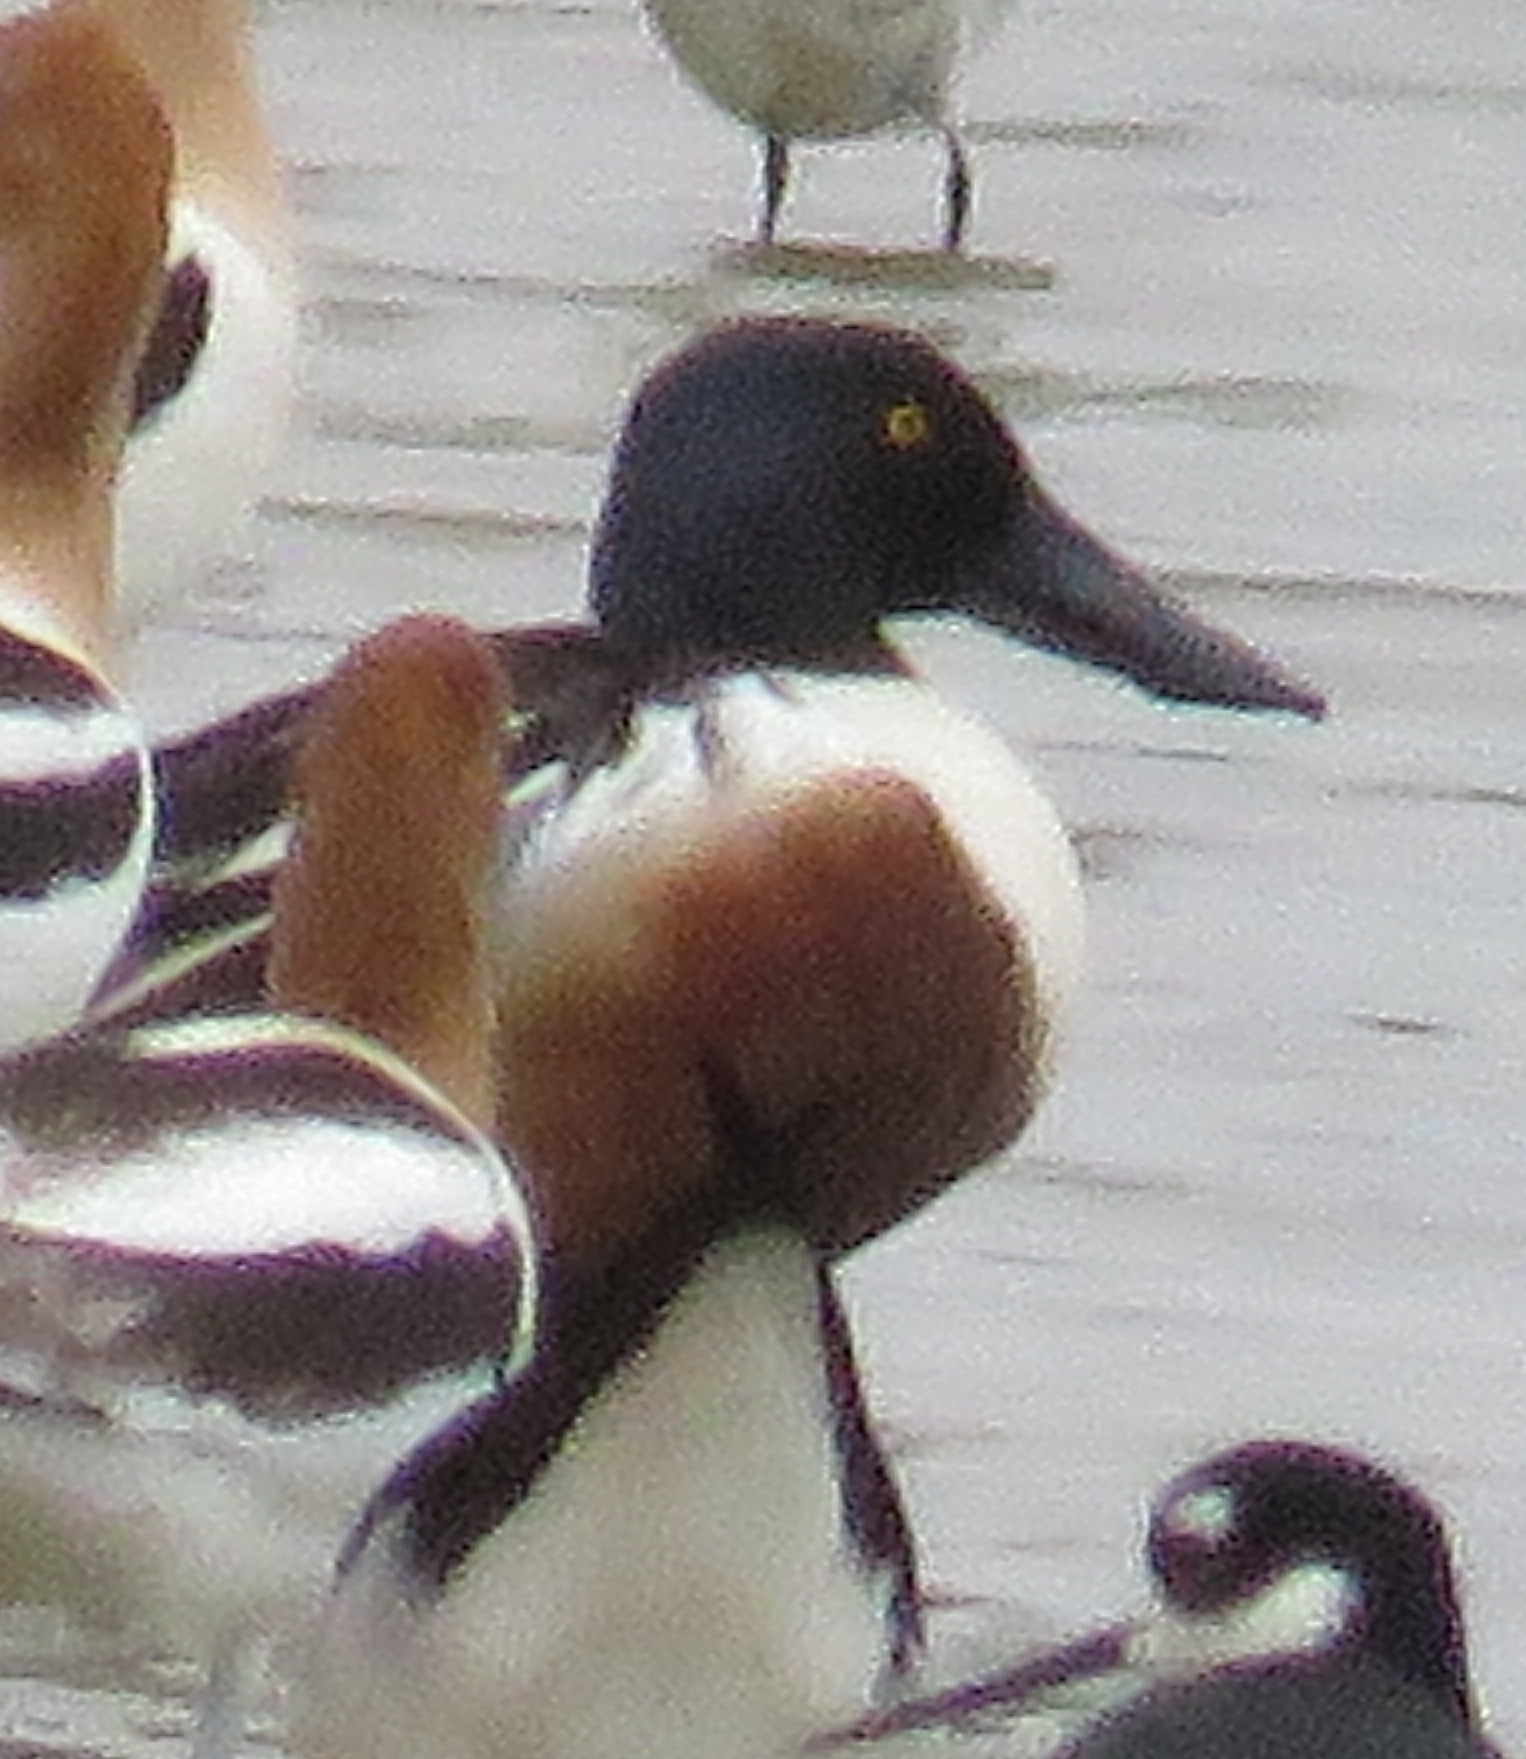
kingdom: Animalia
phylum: Chordata
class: Aves
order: Anseriformes
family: Anatidae
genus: Spatula
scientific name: Spatula clypeata
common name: Northern shoveler
